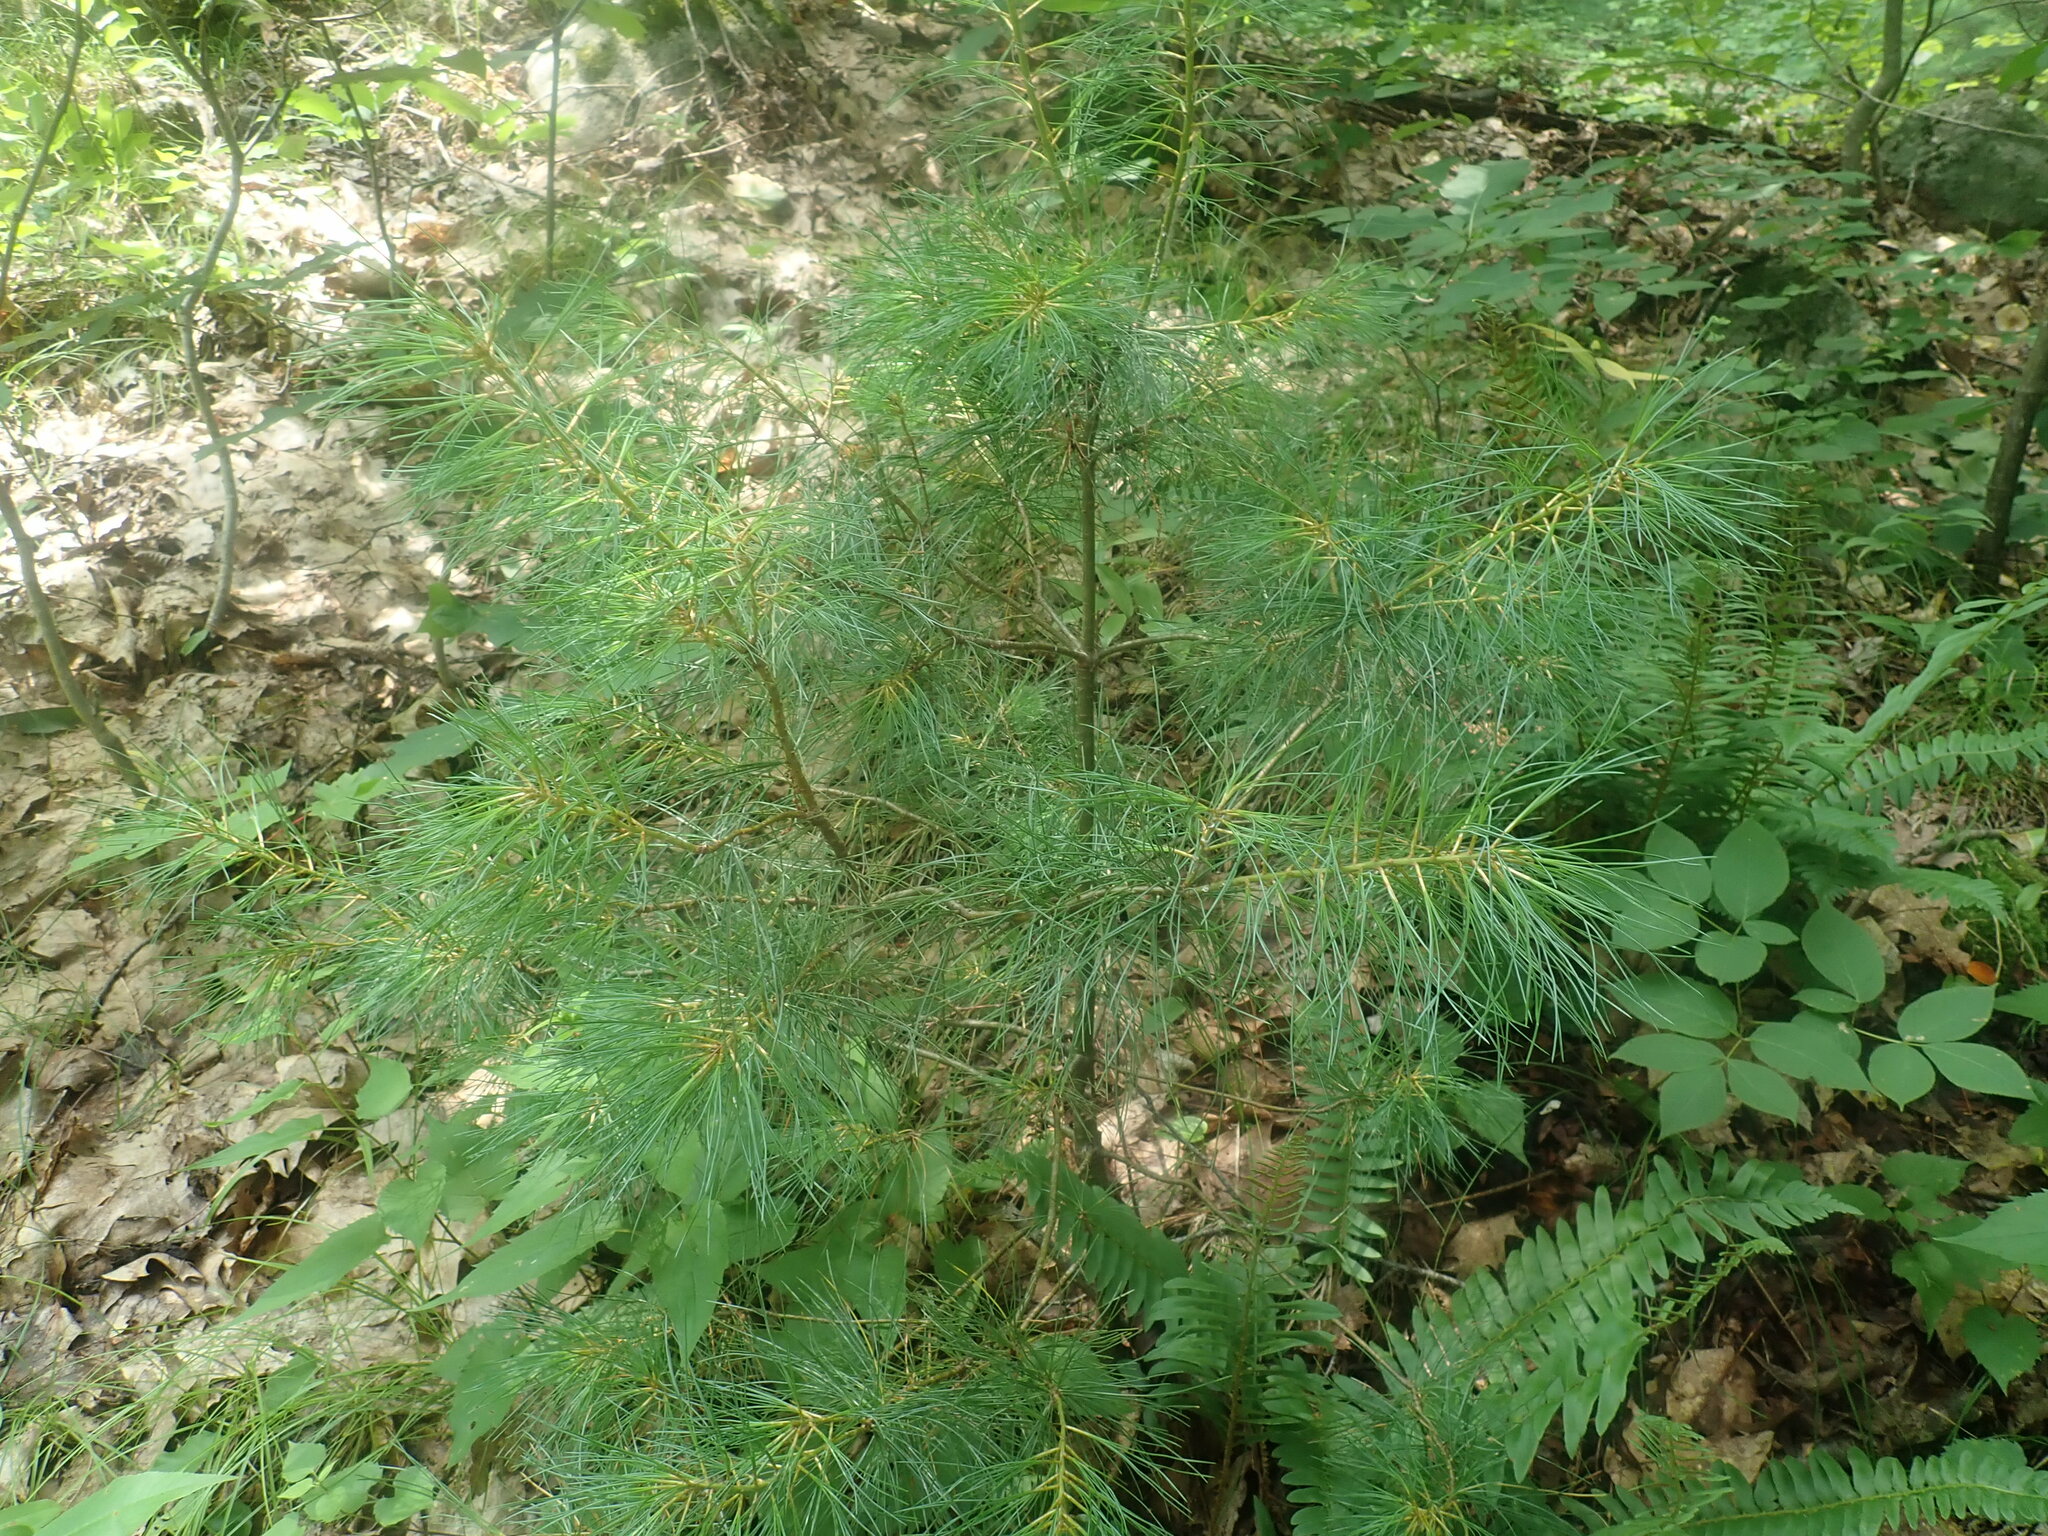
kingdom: Plantae
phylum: Tracheophyta
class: Pinopsida
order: Pinales
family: Pinaceae
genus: Pinus
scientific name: Pinus strobus
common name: Weymouth pine
